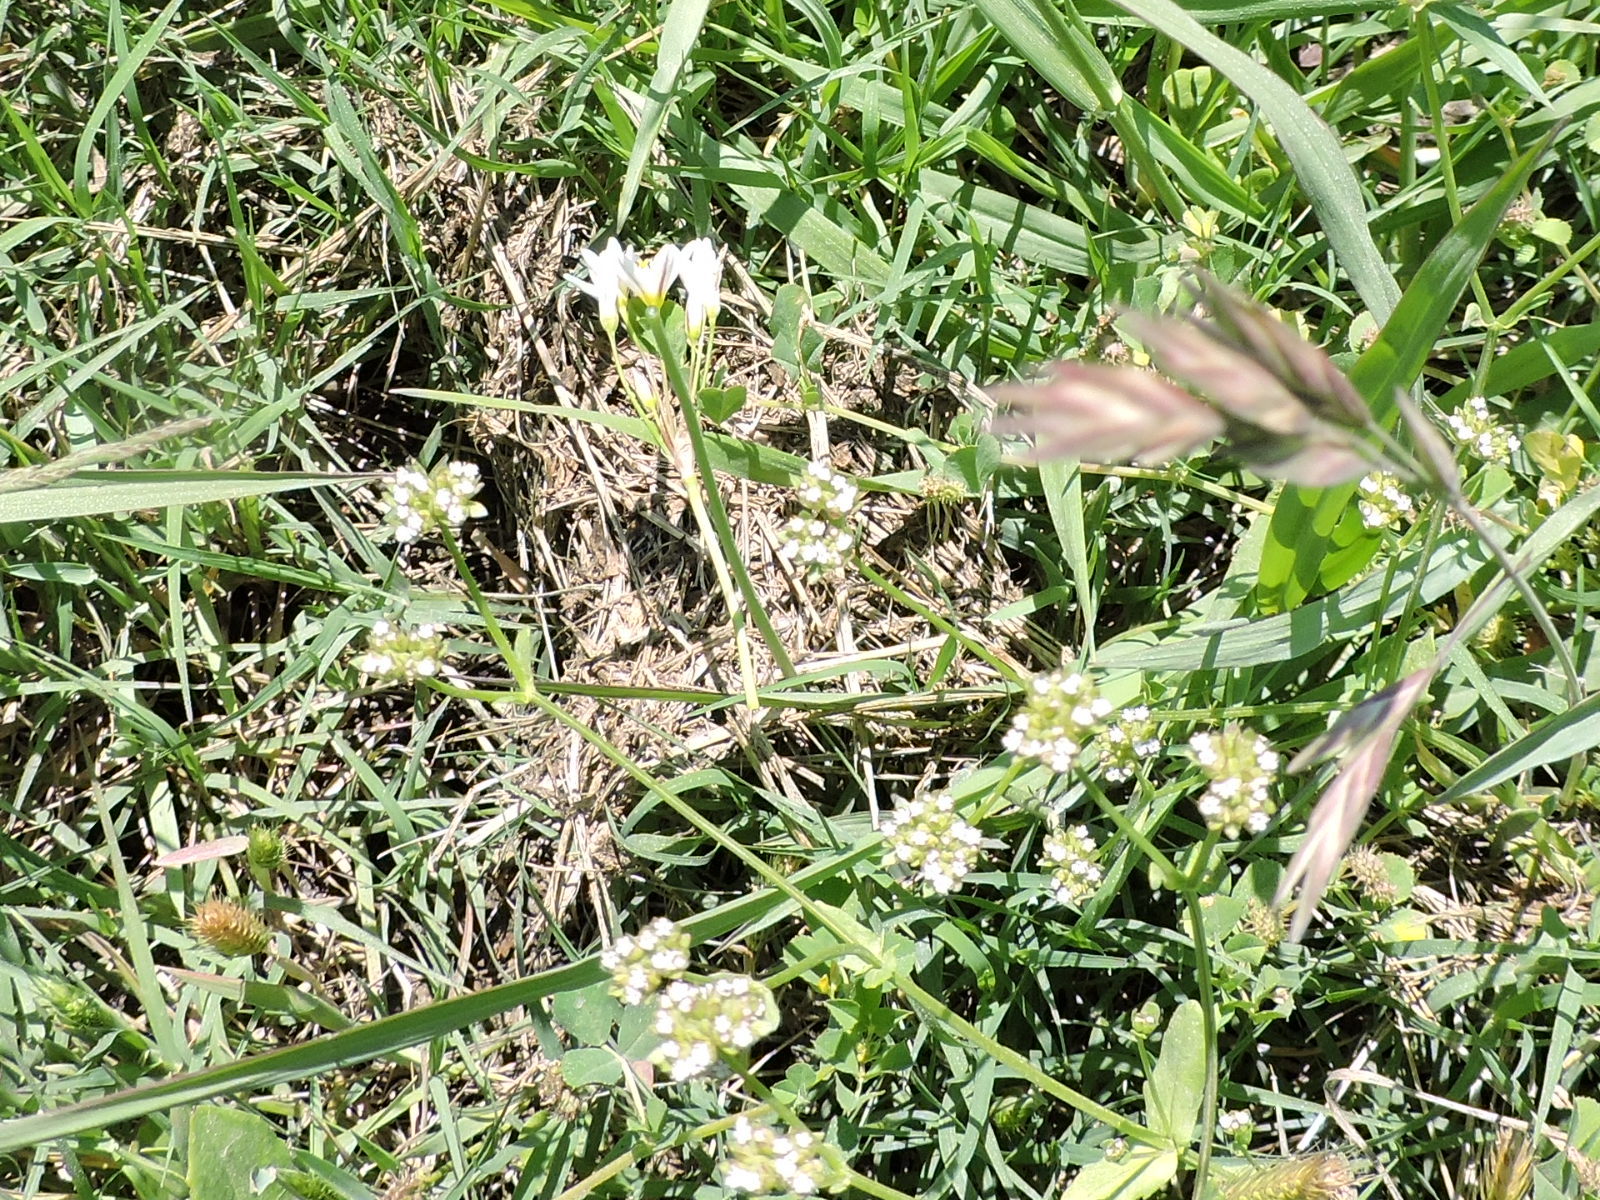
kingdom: Plantae
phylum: Tracheophyta
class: Liliopsida
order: Asparagales
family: Amaryllidaceae
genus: Nothoscordum
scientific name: Nothoscordum bivalve
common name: Crow-poison
